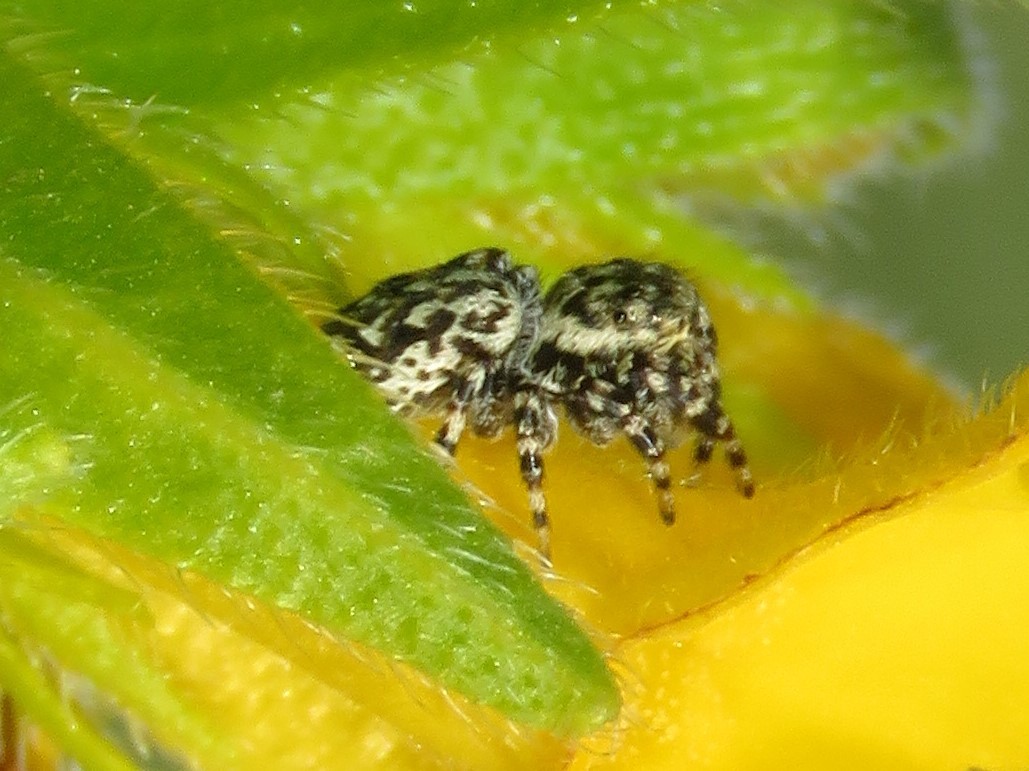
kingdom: Animalia
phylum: Arthropoda
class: Arachnida
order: Araneae
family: Salticidae
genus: Pelegrina
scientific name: Pelegrina galathea
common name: Jumping spiders
